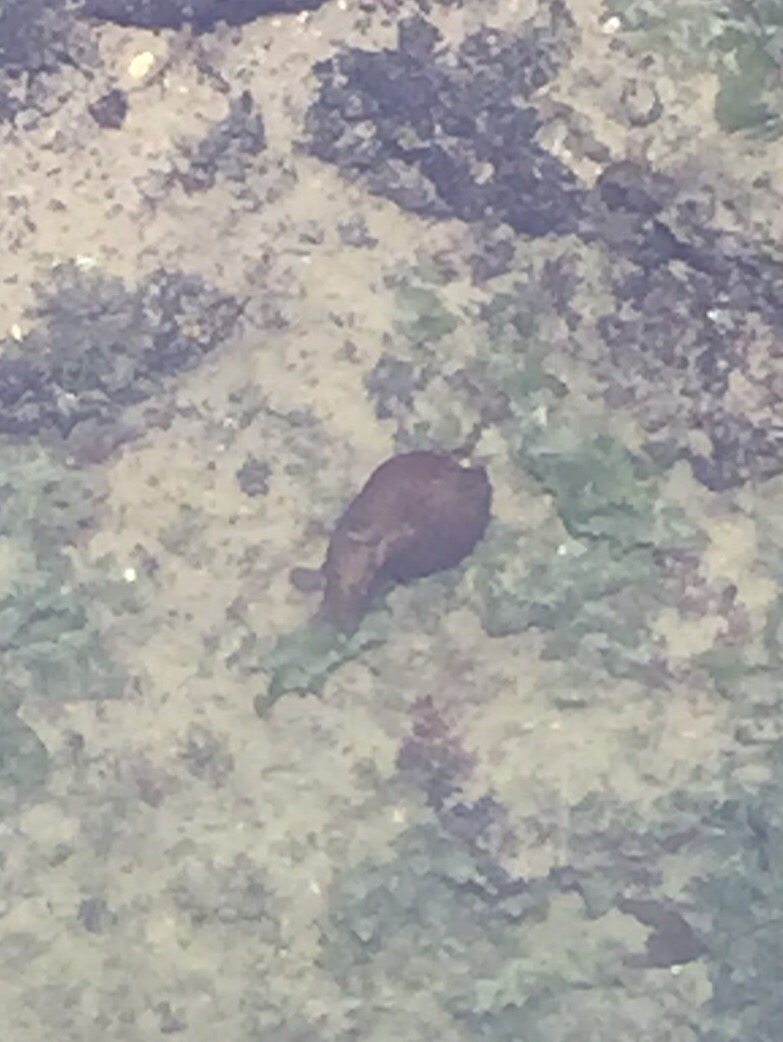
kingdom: Animalia
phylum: Mollusca
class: Gastropoda
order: Aplysiida
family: Aplysiidae
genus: Aplysia
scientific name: Aplysia californica
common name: California seahare
